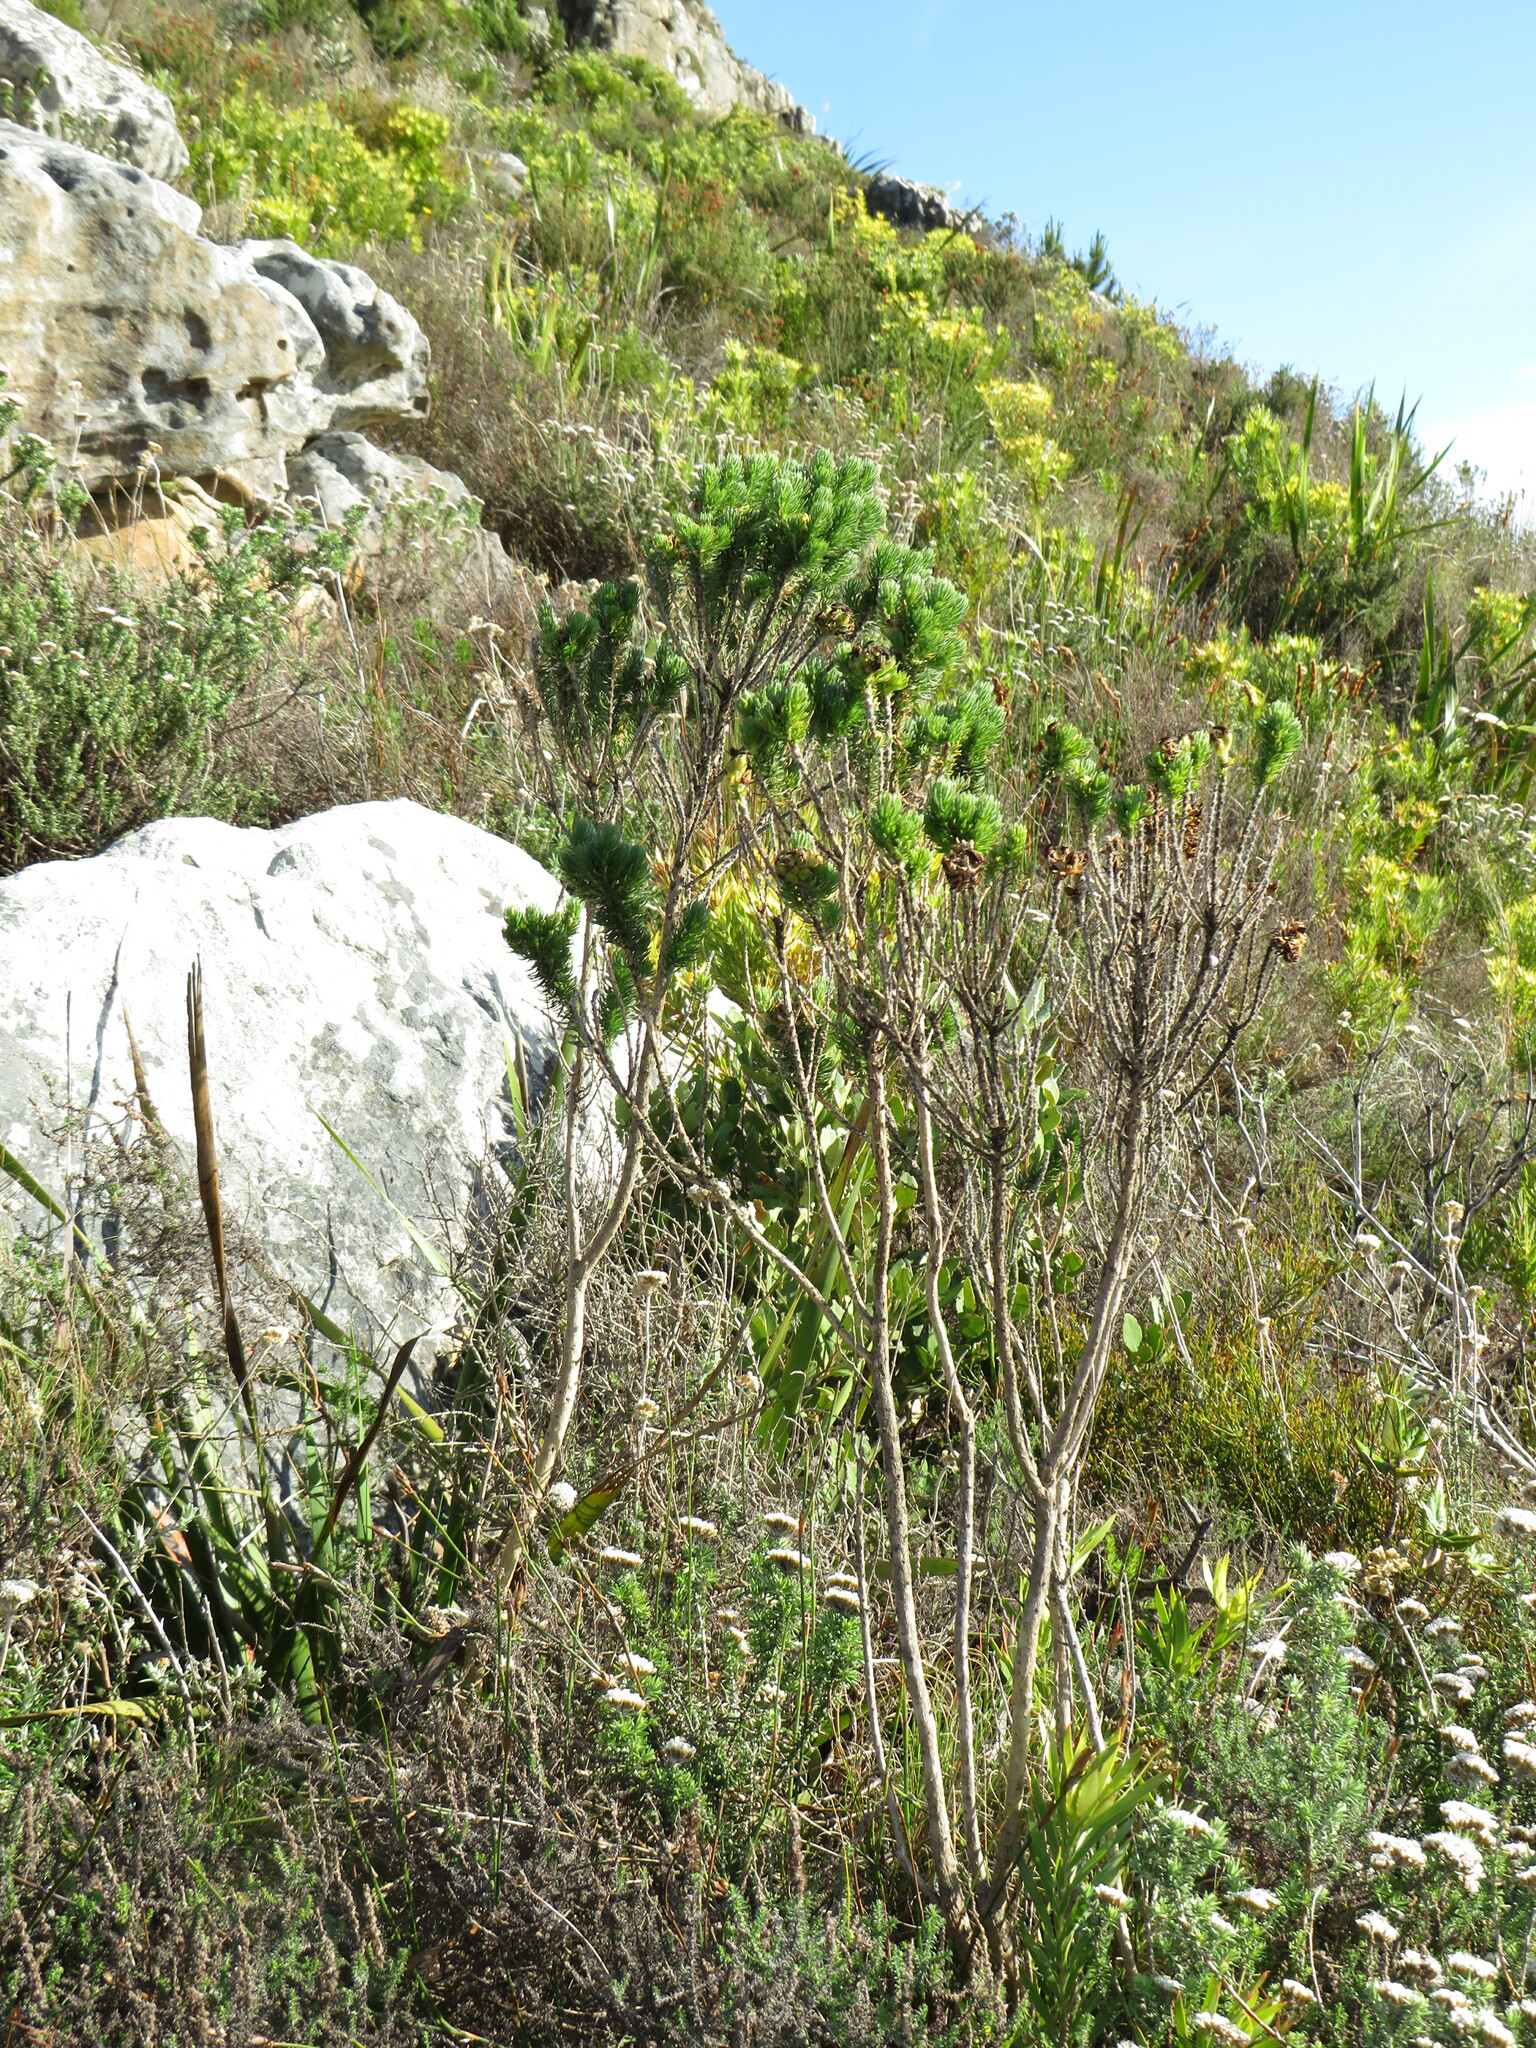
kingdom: Plantae
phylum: Tracheophyta
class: Magnoliopsida
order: Fabales
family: Fabaceae
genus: Aspalathus
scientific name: Aspalathus capitata
